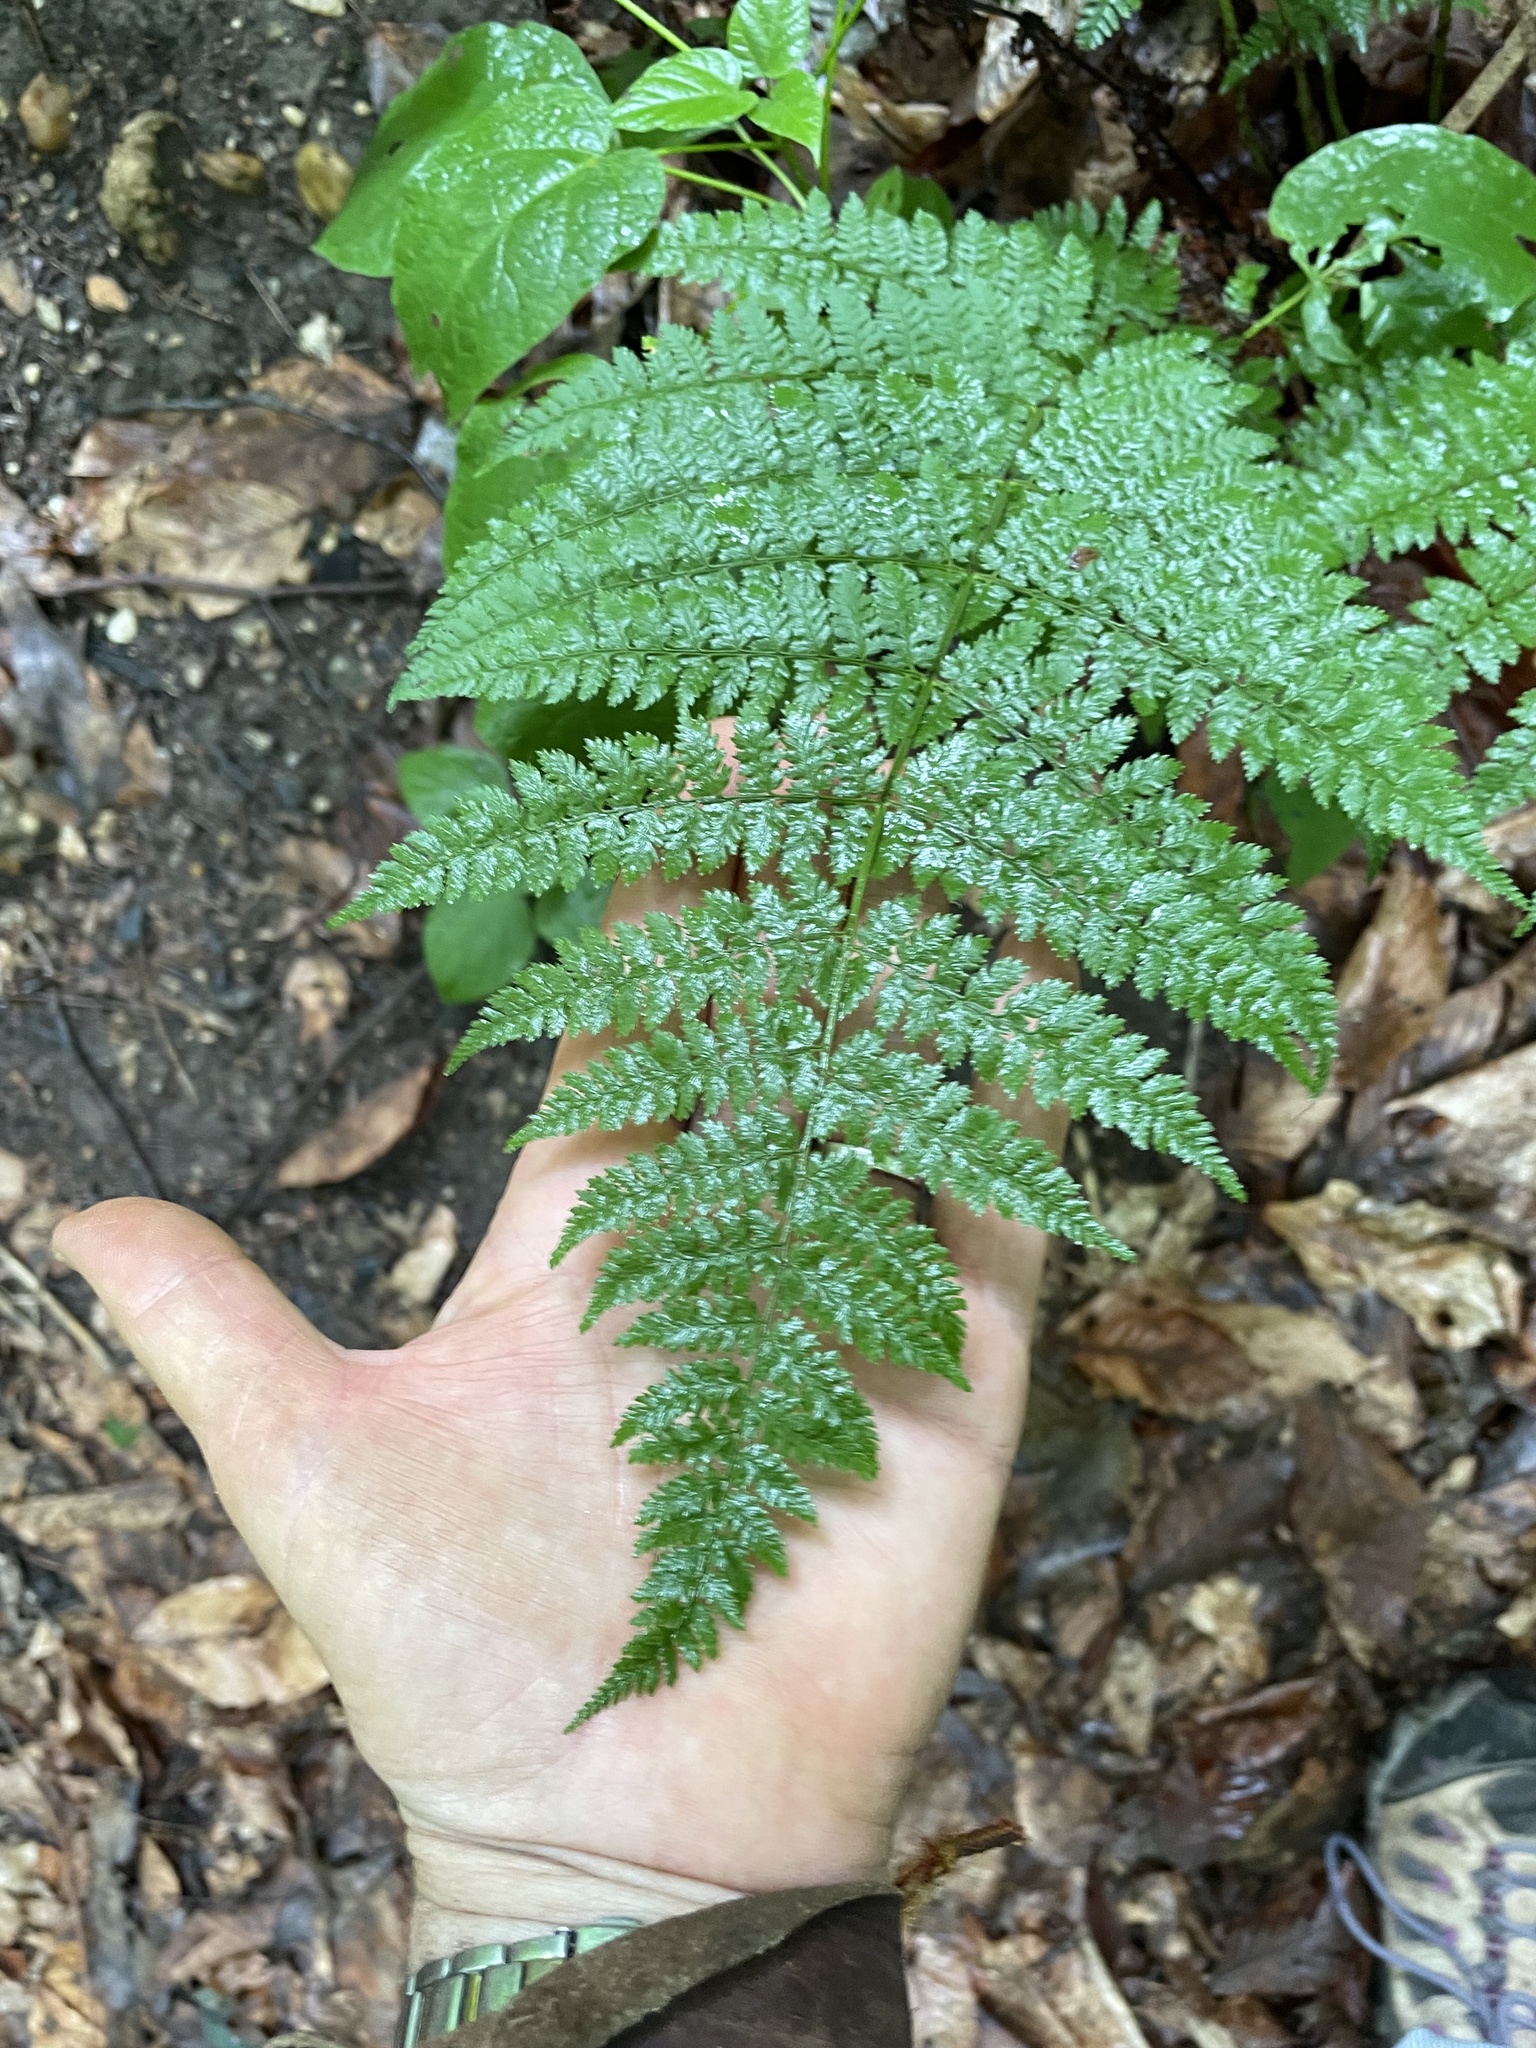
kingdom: Plantae
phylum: Tracheophyta
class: Polypodiopsida
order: Polypodiales
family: Dryopteridaceae
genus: Dryopteris
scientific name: Dryopteris intermedia
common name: Evergreen wood fern
